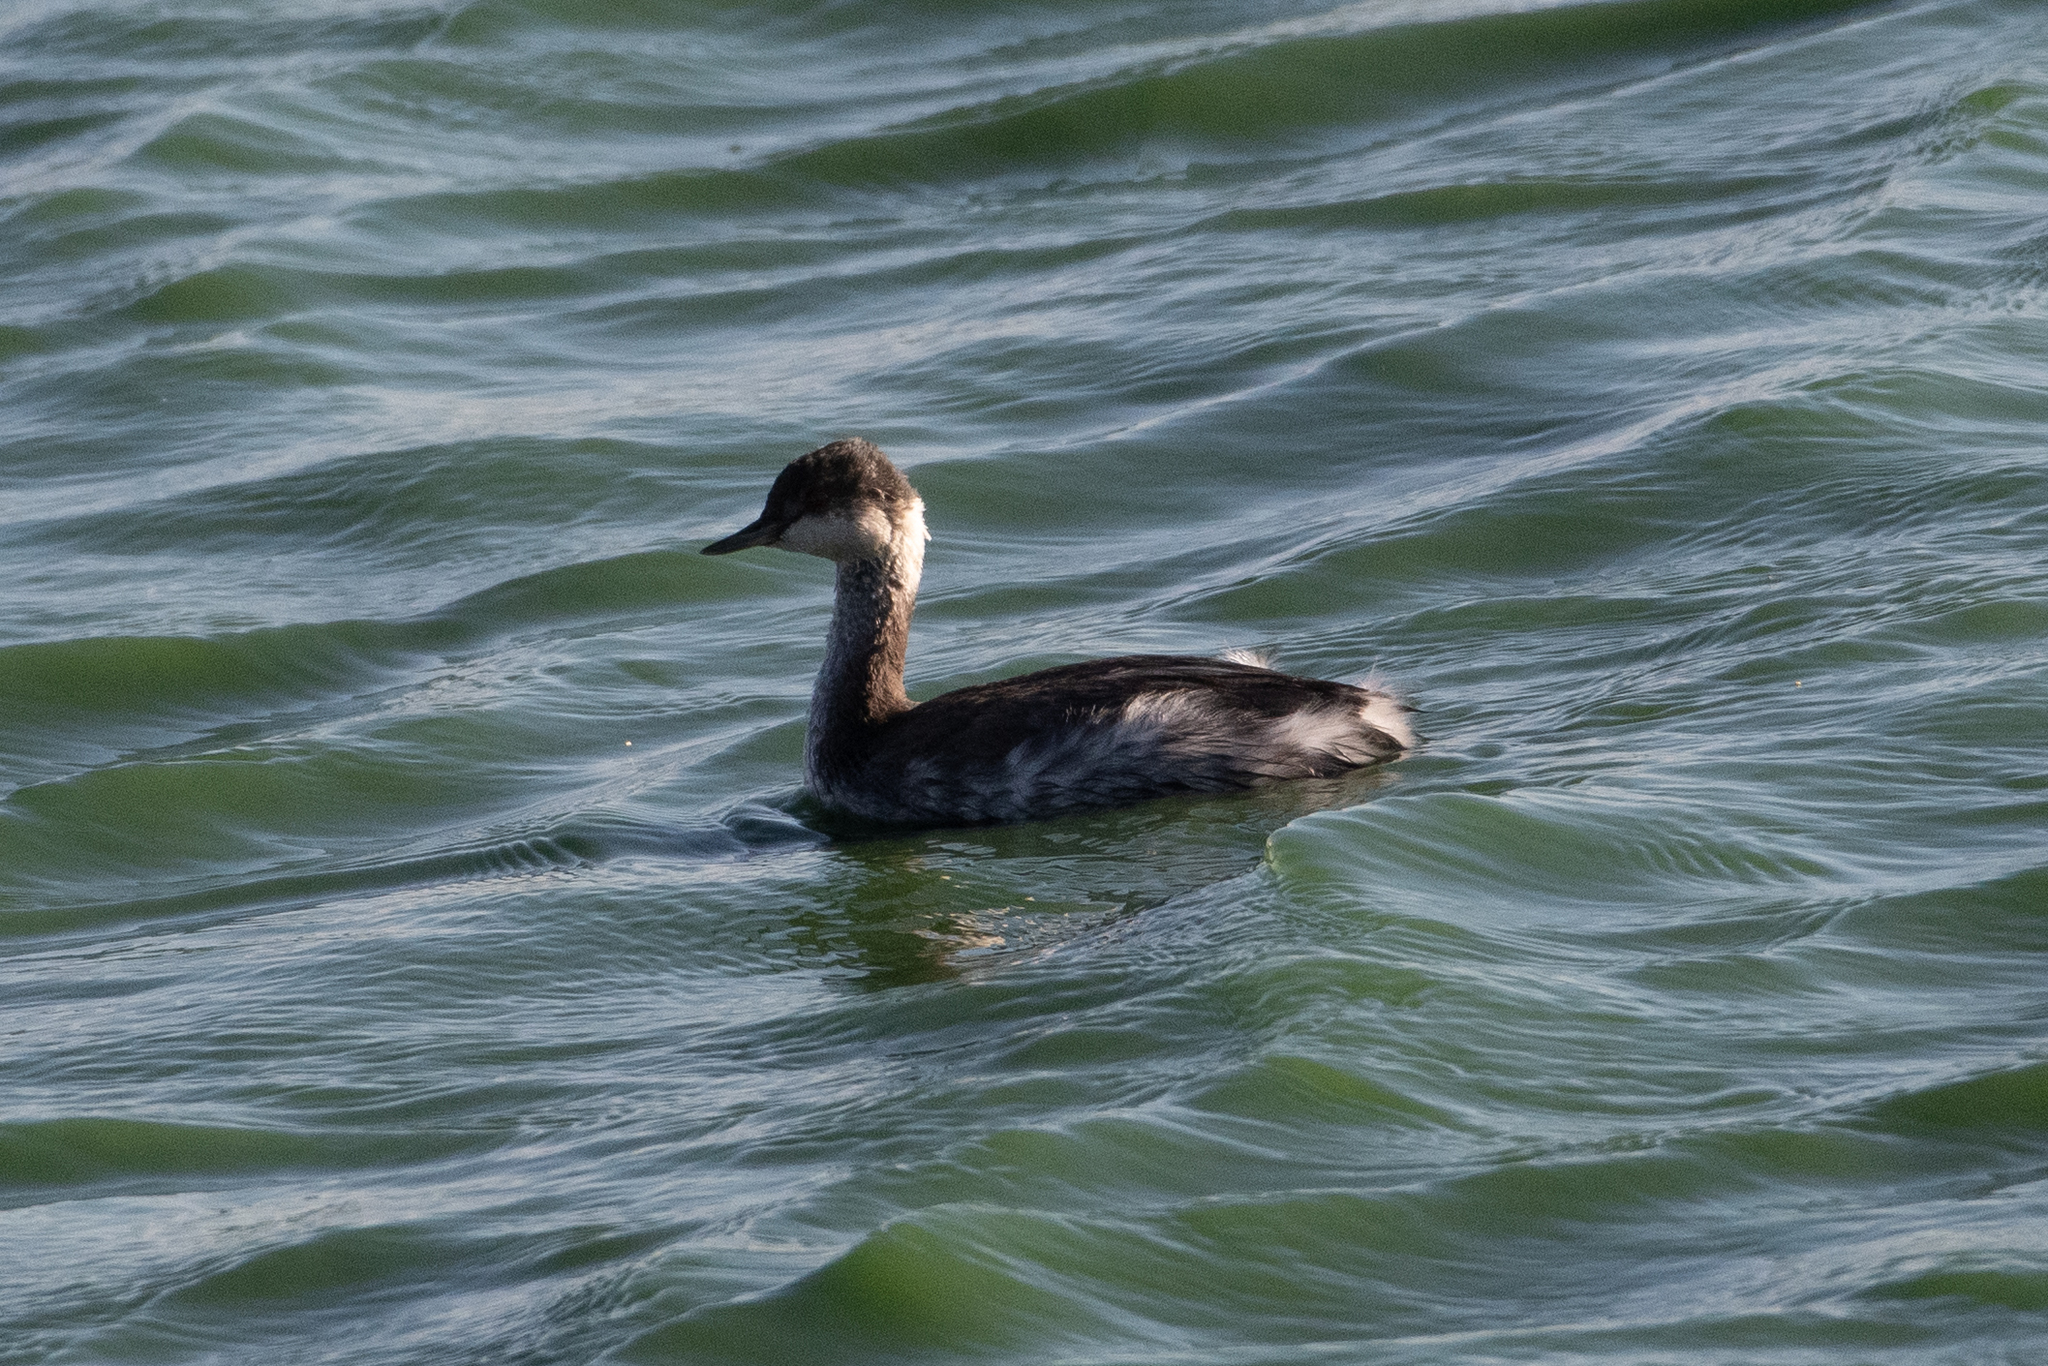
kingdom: Animalia
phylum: Chordata
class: Aves
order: Podicipediformes
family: Podicipedidae
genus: Podiceps
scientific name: Podiceps nigricollis
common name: Black-necked grebe
